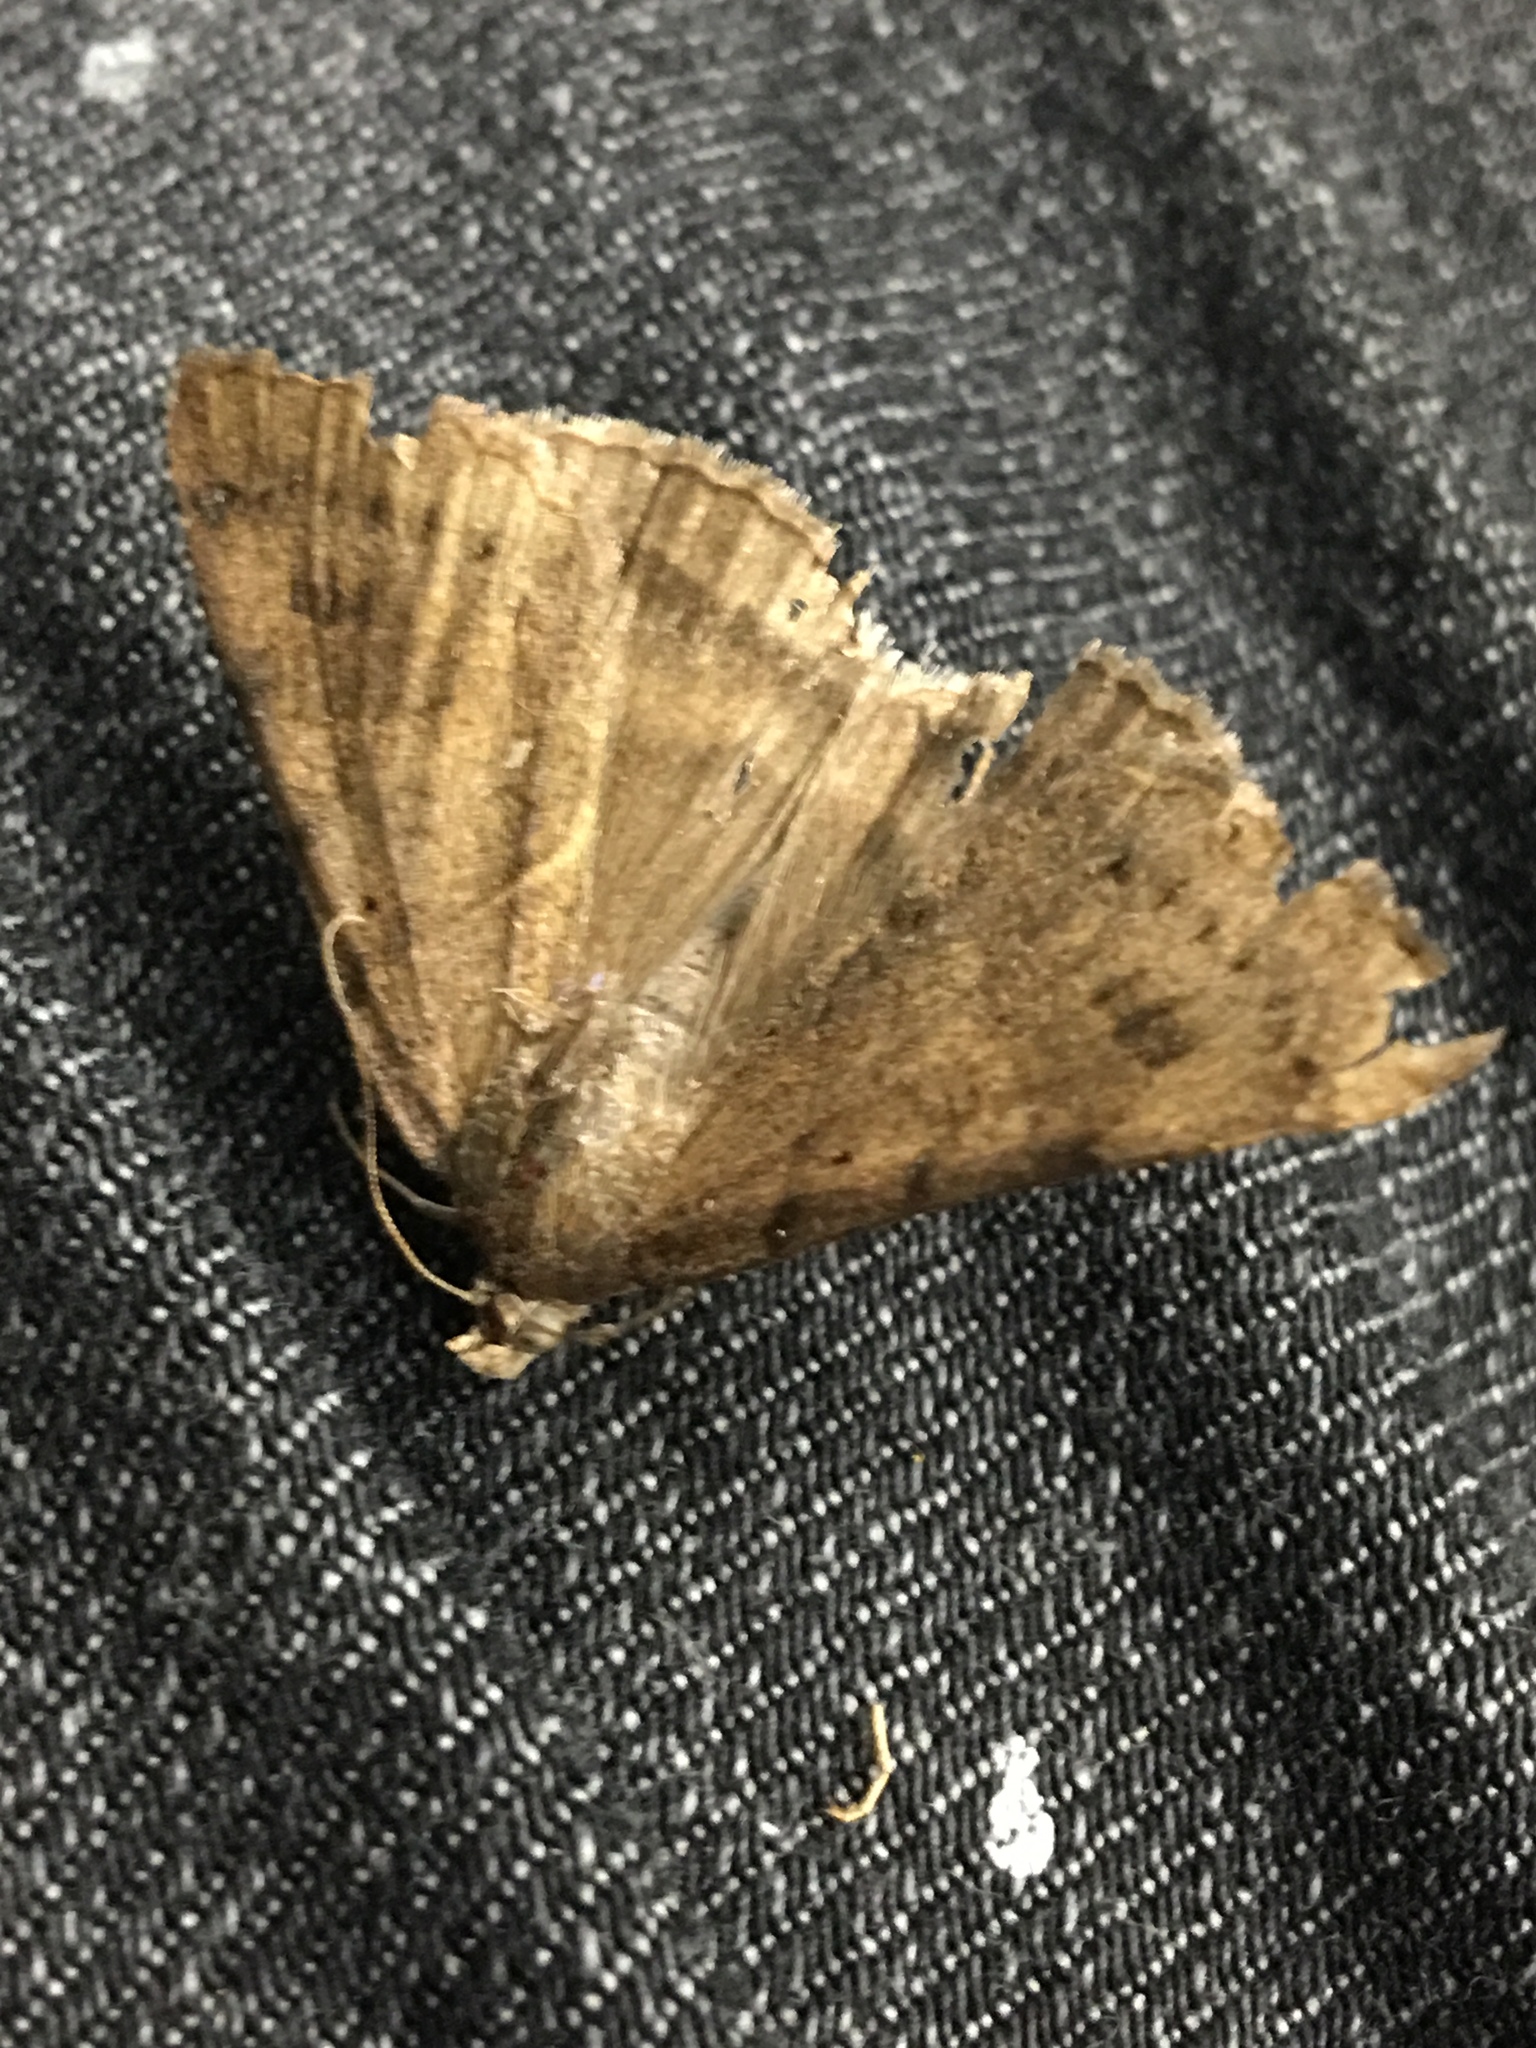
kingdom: Animalia
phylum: Arthropoda
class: Insecta
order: Lepidoptera
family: Erebidae
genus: Caenurgia
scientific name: Caenurgia chloropha
